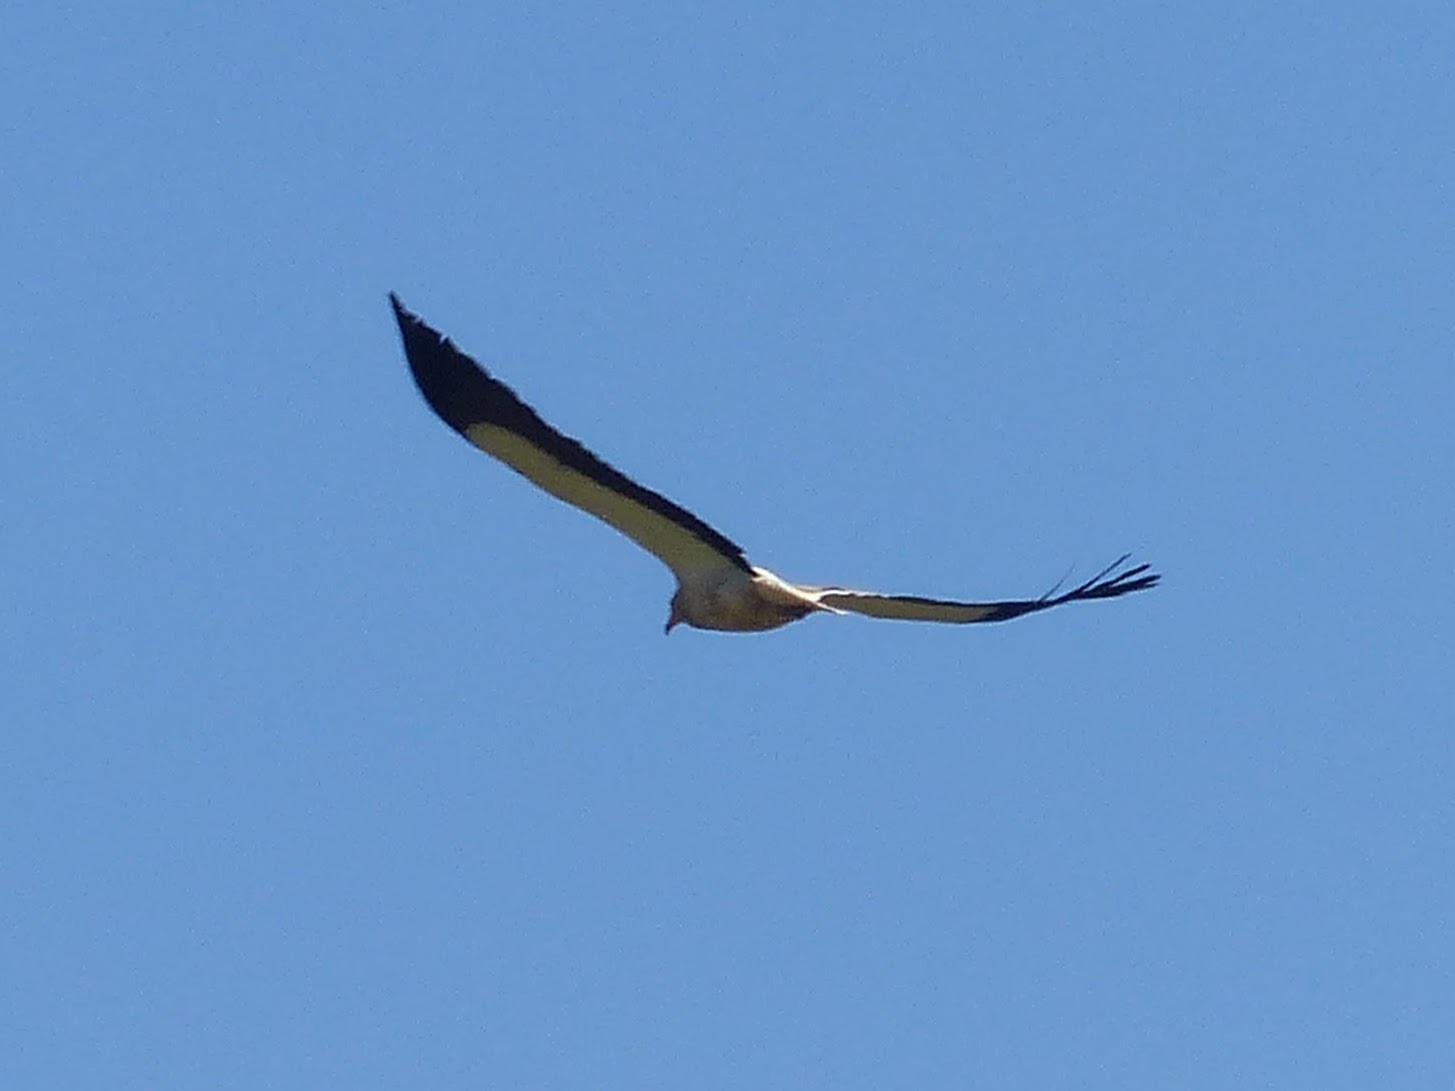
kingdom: Animalia
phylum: Chordata
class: Aves
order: Accipitriformes
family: Accipitridae
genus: Neophron
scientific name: Neophron percnopterus
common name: Egyptian vulture
